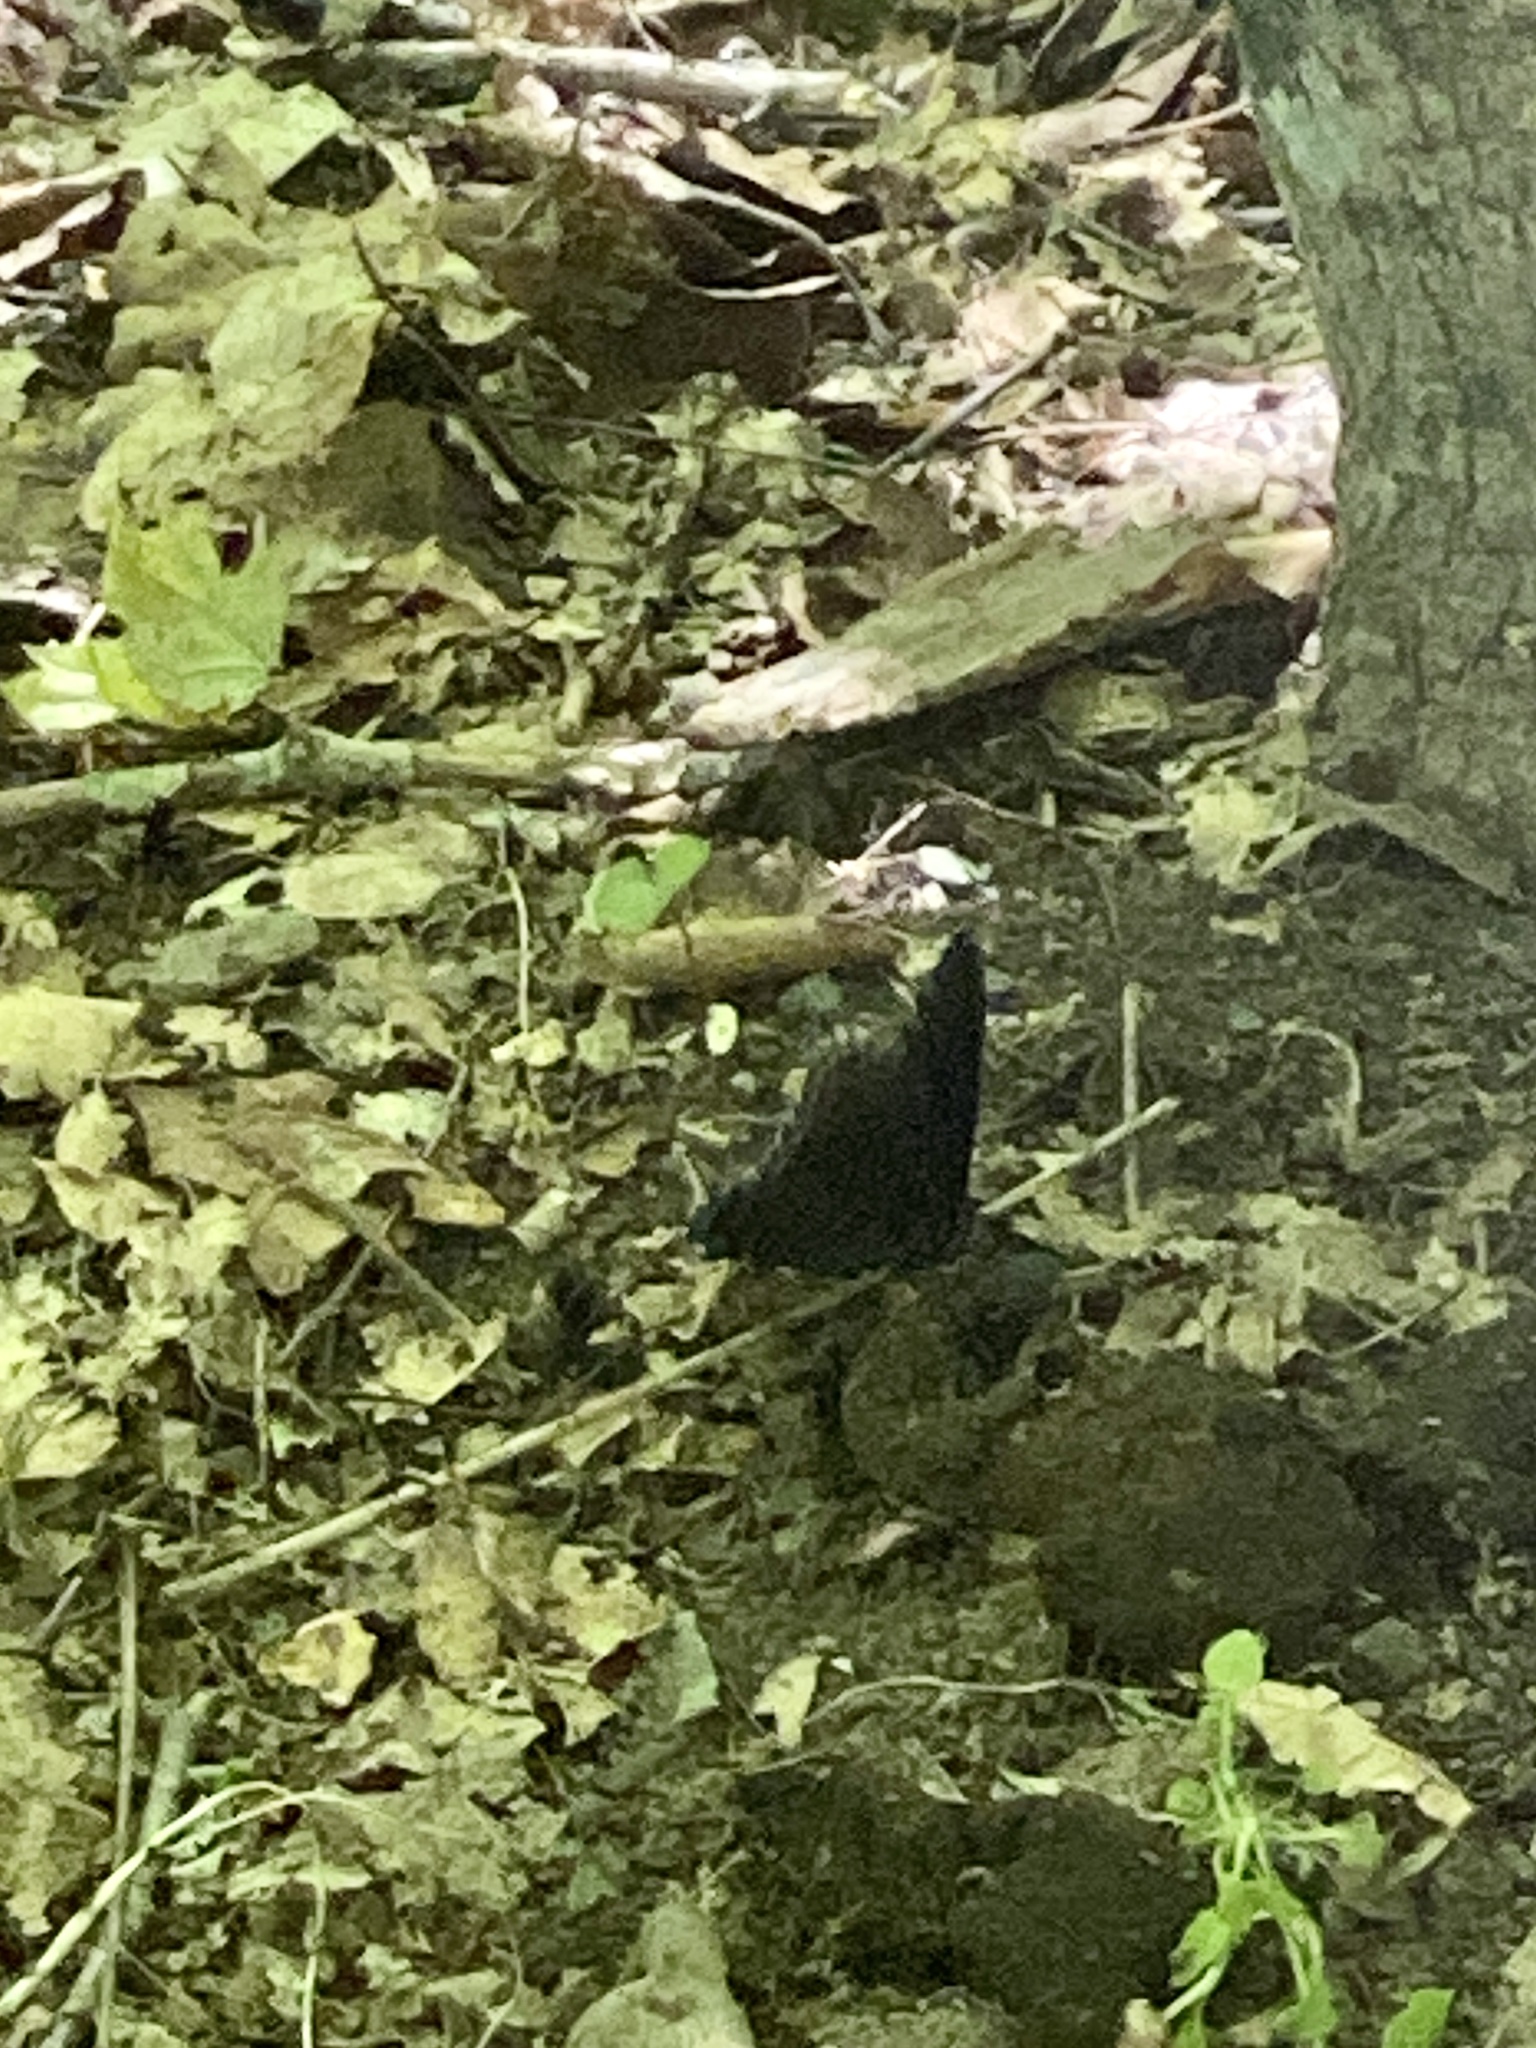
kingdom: Animalia
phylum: Arthropoda
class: Insecta
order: Lepidoptera
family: Nymphalidae
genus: Limenitis
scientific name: Limenitis astyanax
